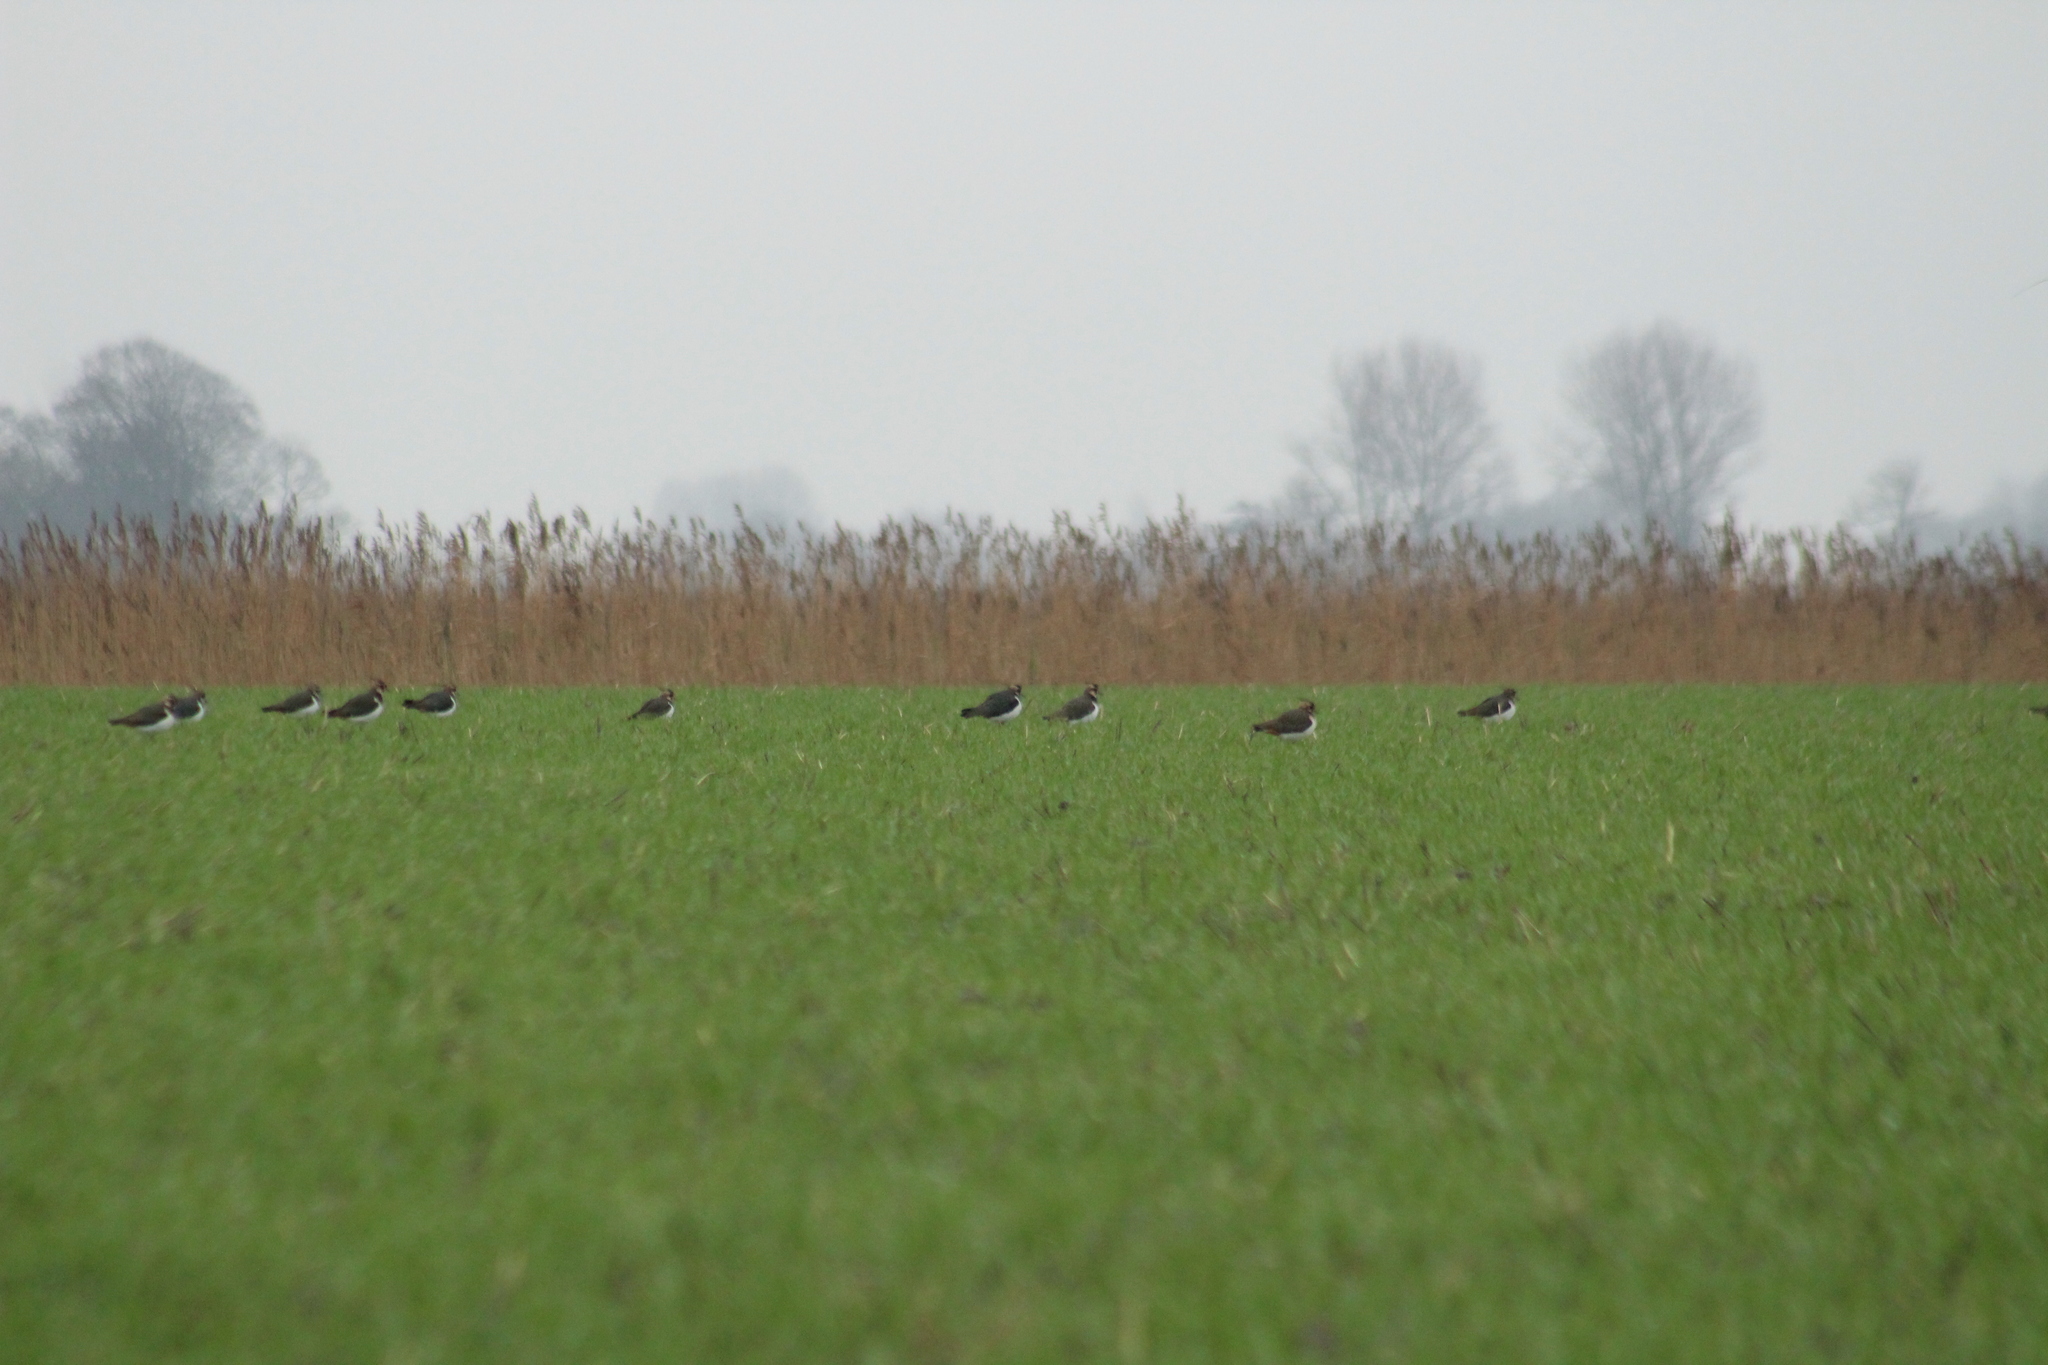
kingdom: Animalia
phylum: Chordata
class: Aves
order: Charadriiformes
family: Charadriidae
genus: Vanellus
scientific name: Vanellus vanellus
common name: Northern lapwing
